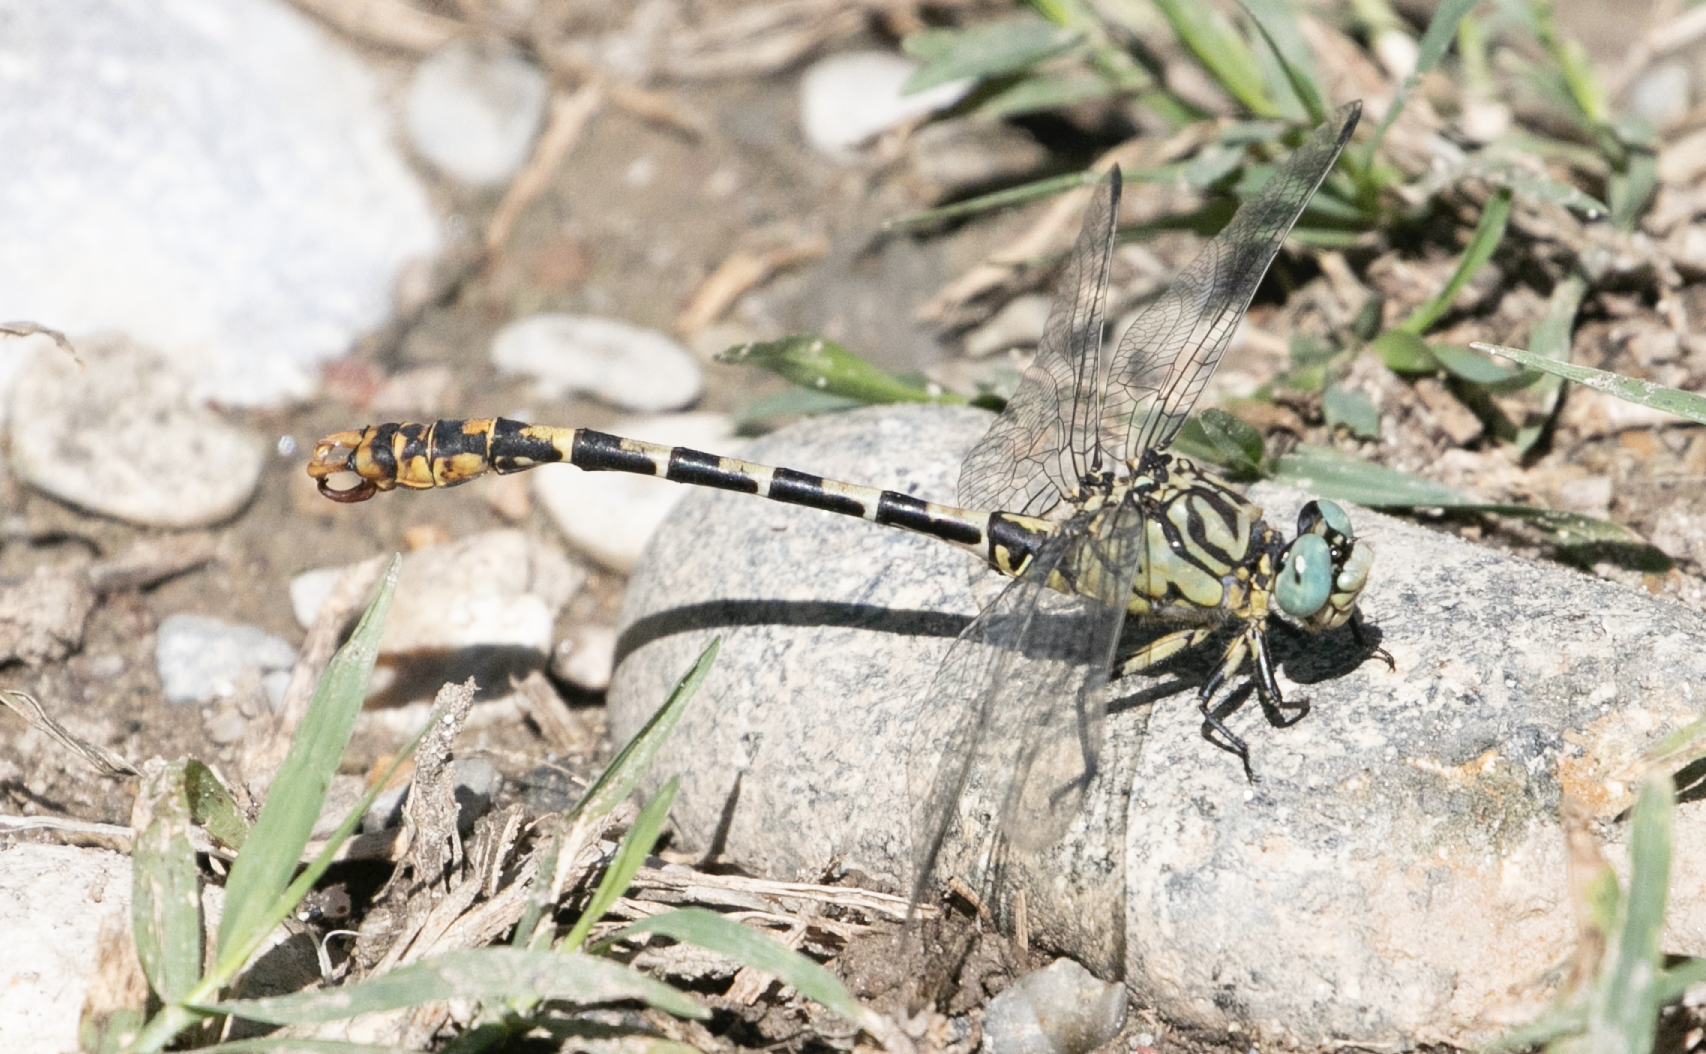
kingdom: Animalia
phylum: Arthropoda
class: Insecta
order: Odonata
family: Gomphidae
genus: Onychogomphus
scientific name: Onychogomphus forcipatus
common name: Small pincertail
